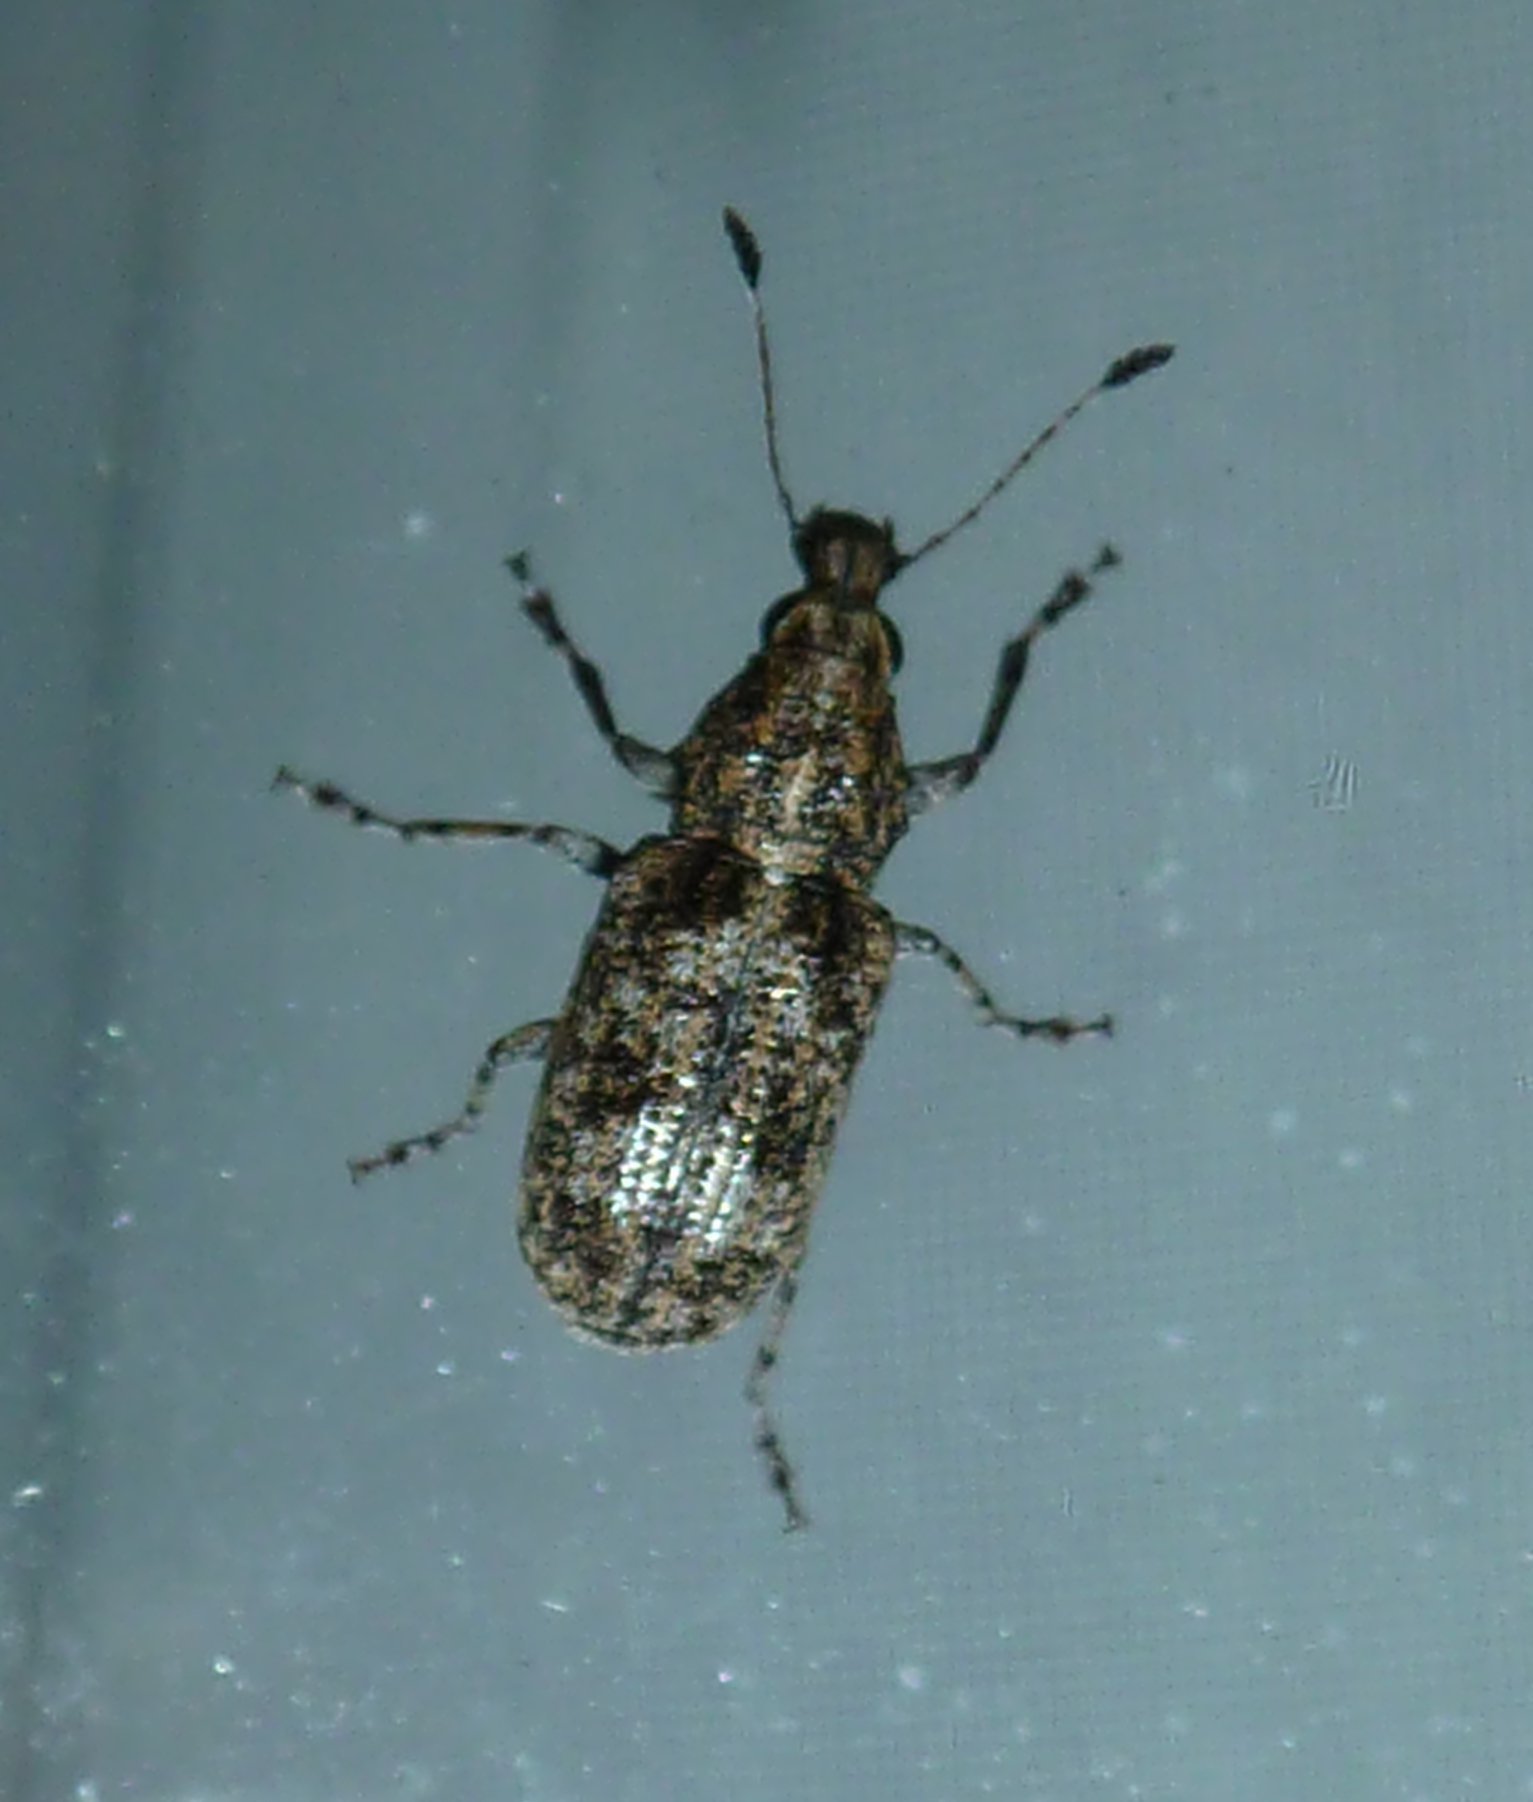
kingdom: Animalia
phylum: Arthropoda
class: Insecta
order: Coleoptera
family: Anthribidae
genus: Meconemus
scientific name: Meconemus infuscatus
